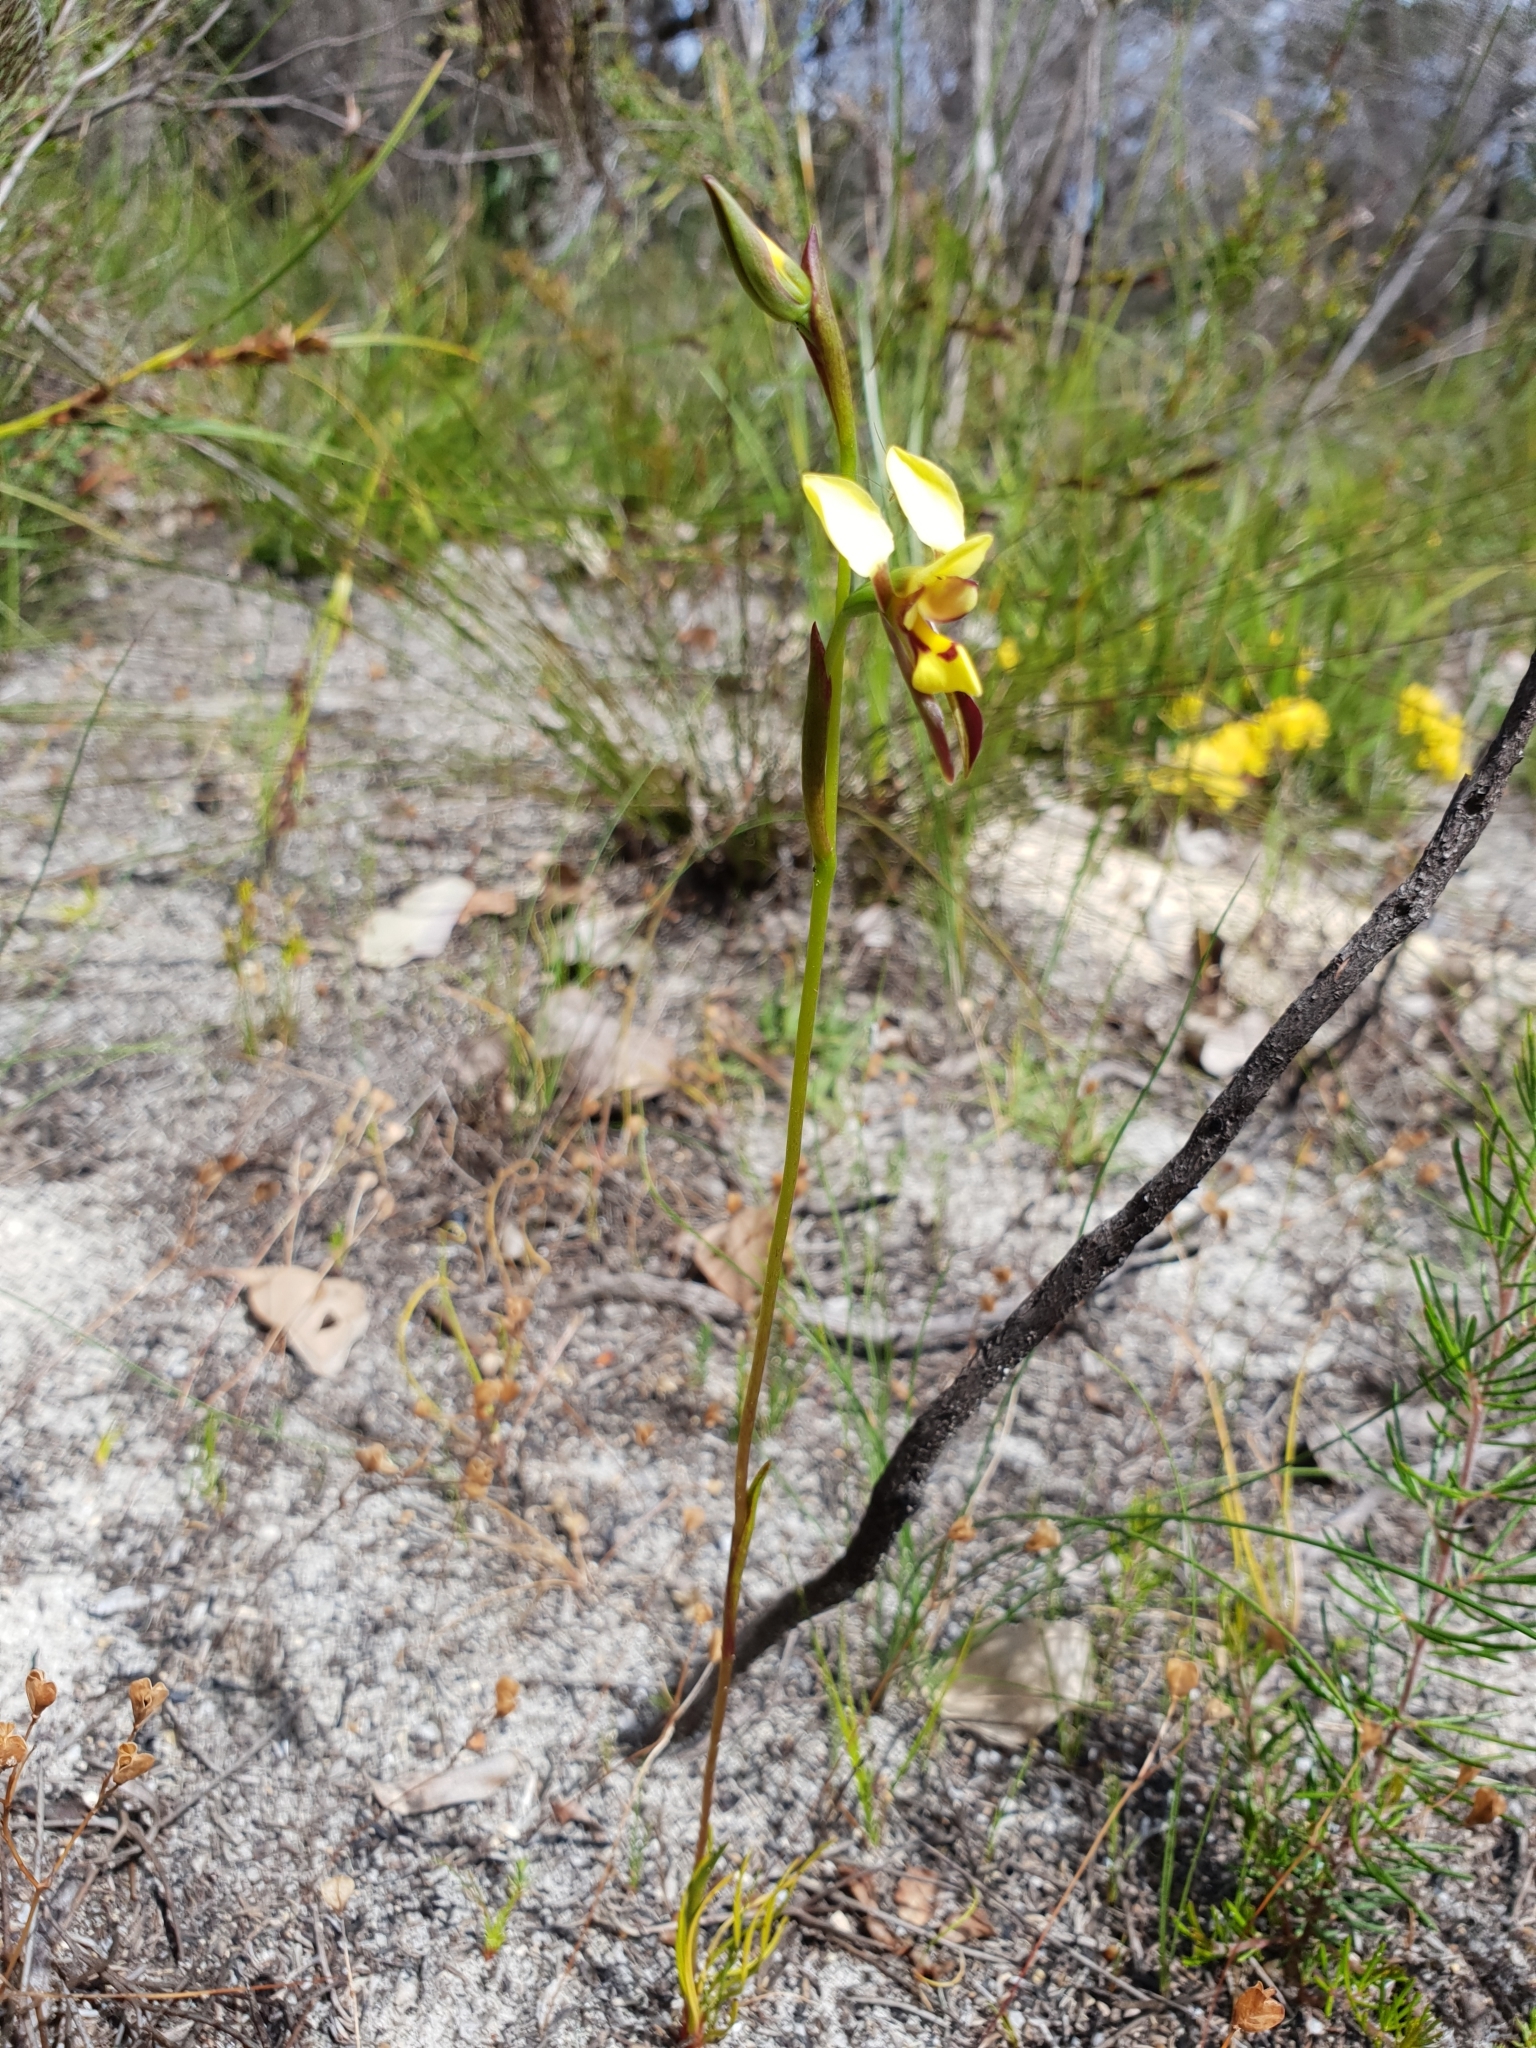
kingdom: Plantae
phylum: Tracheophyta
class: Liliopsida
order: Asparagales
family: Orchidaceae
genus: Diuris
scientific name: Diuris setacea
